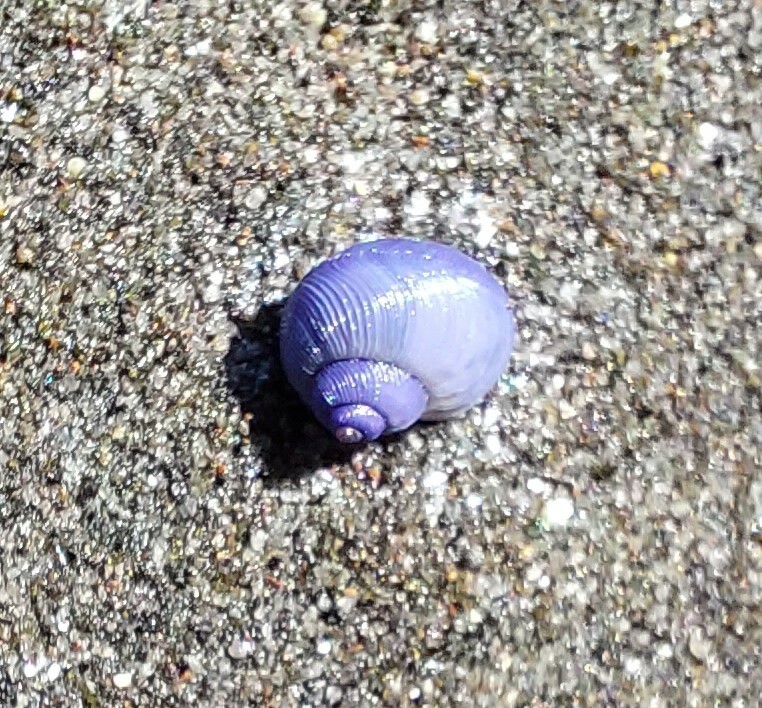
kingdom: Animalia
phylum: Mollusca
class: Gastropoda
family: Epitoniidae
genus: Janthina
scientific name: Janthina exigua
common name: Dwarf janthina
